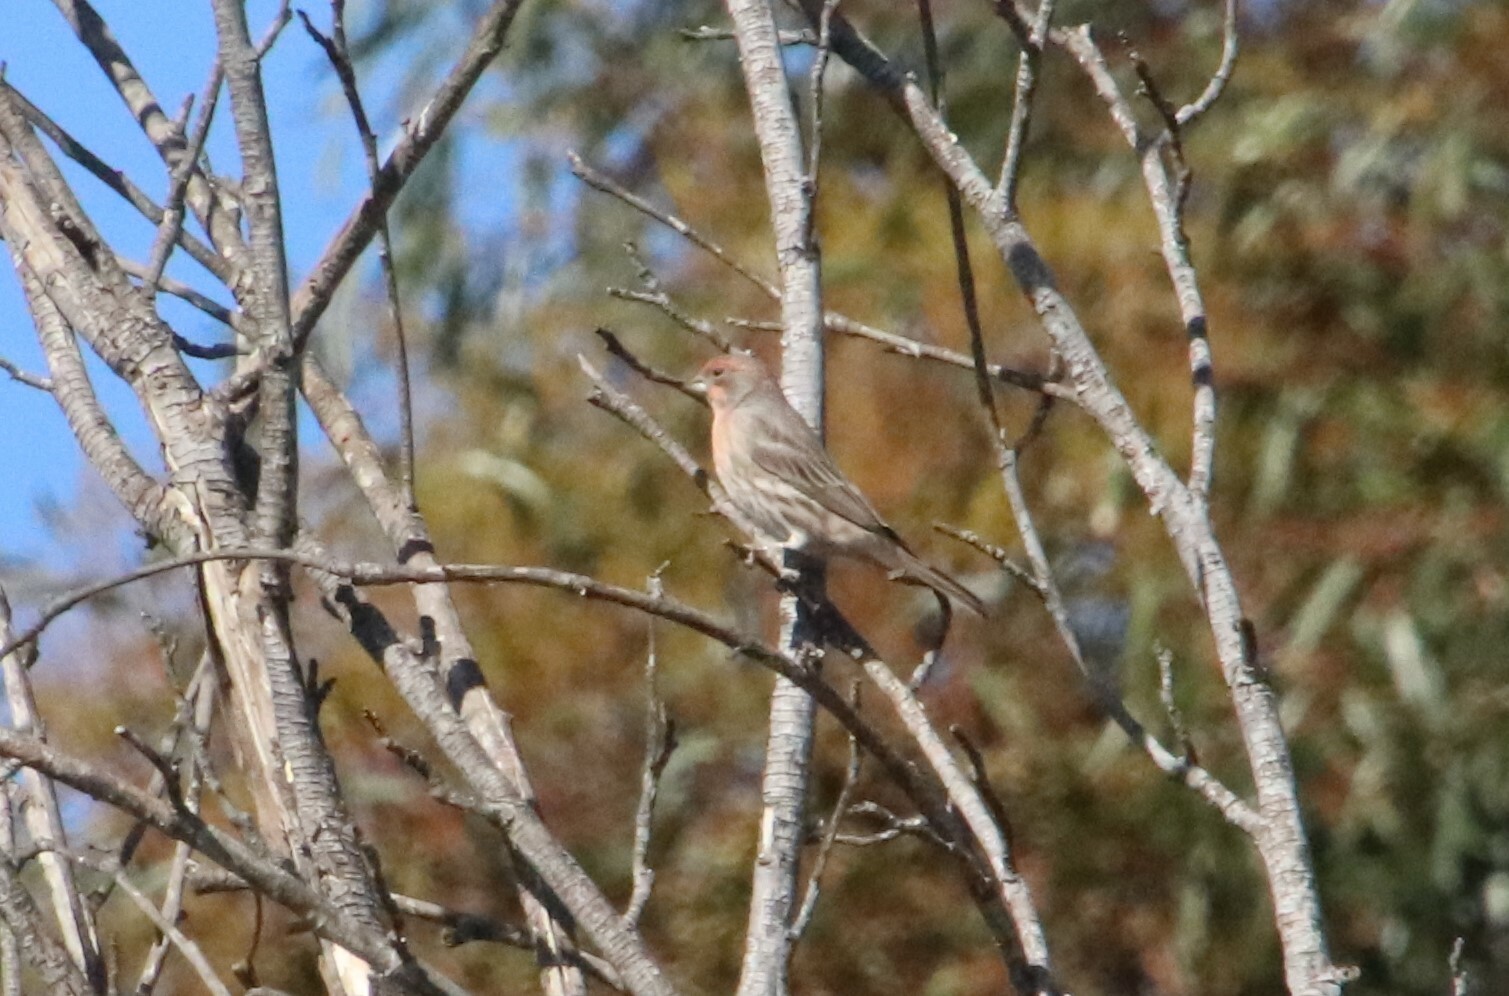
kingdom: Animalia
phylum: Chordata
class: Aves
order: Passeriformes
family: Fringillidae
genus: Haemorhous
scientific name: Haemorhous mexicanus
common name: House finch
